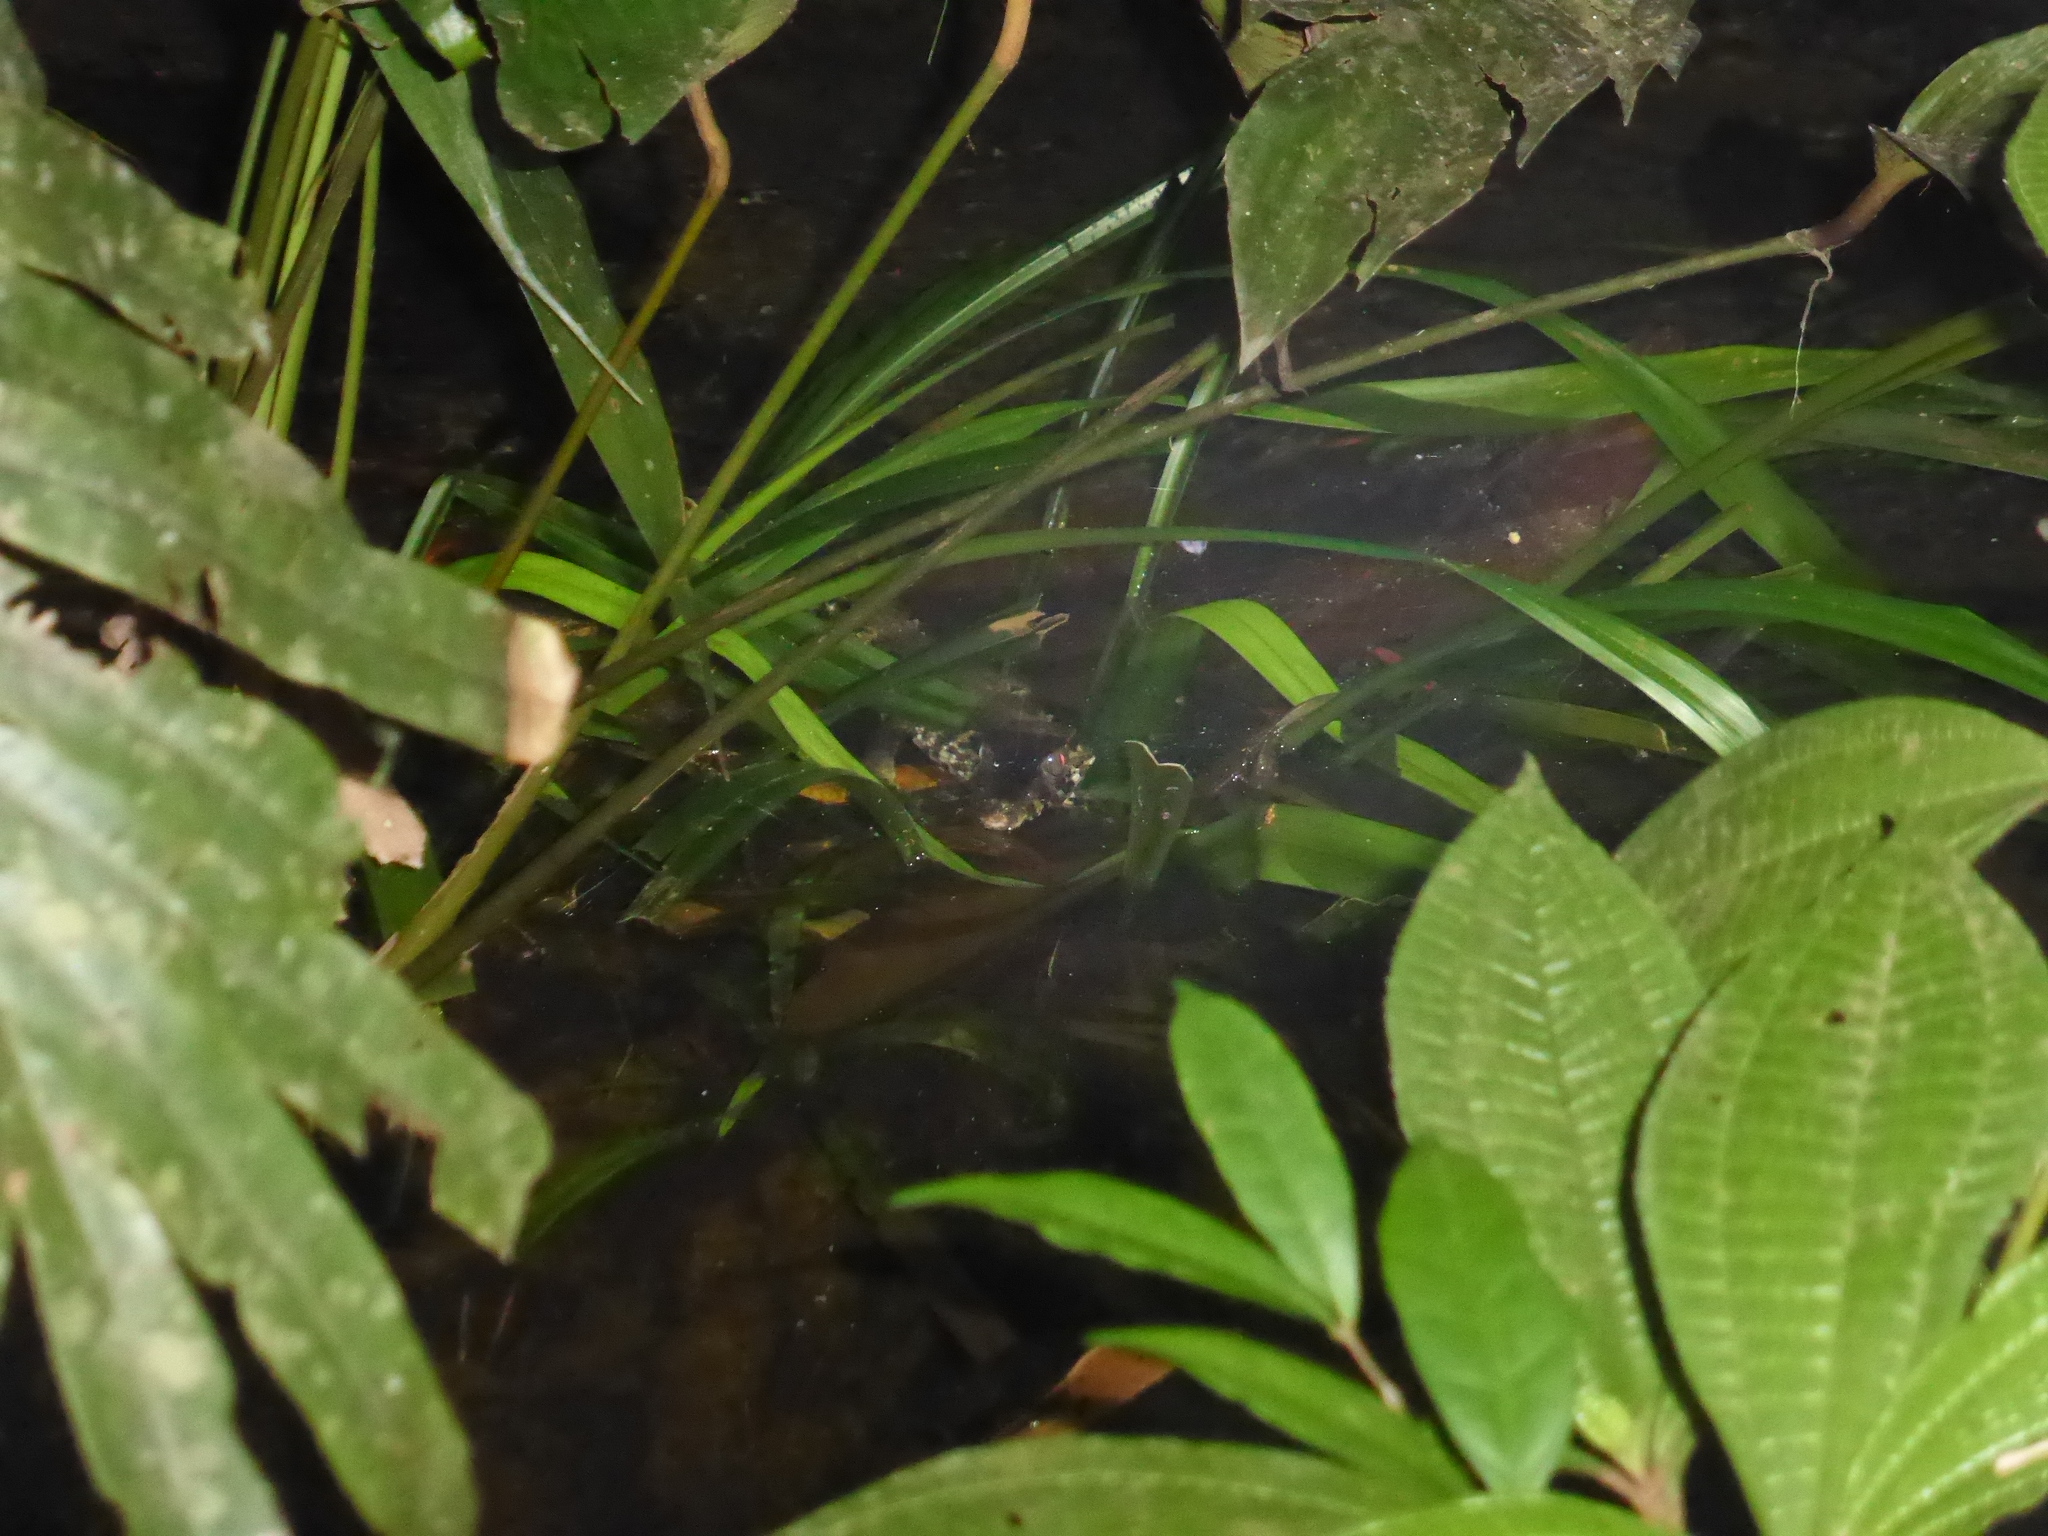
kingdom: Animalia
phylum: Chordata
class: Crocodylia
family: Alligatoridae
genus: Paleosuchus
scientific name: Paleosuchus trigonatus
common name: Schneider's smooth-fronted caiman
